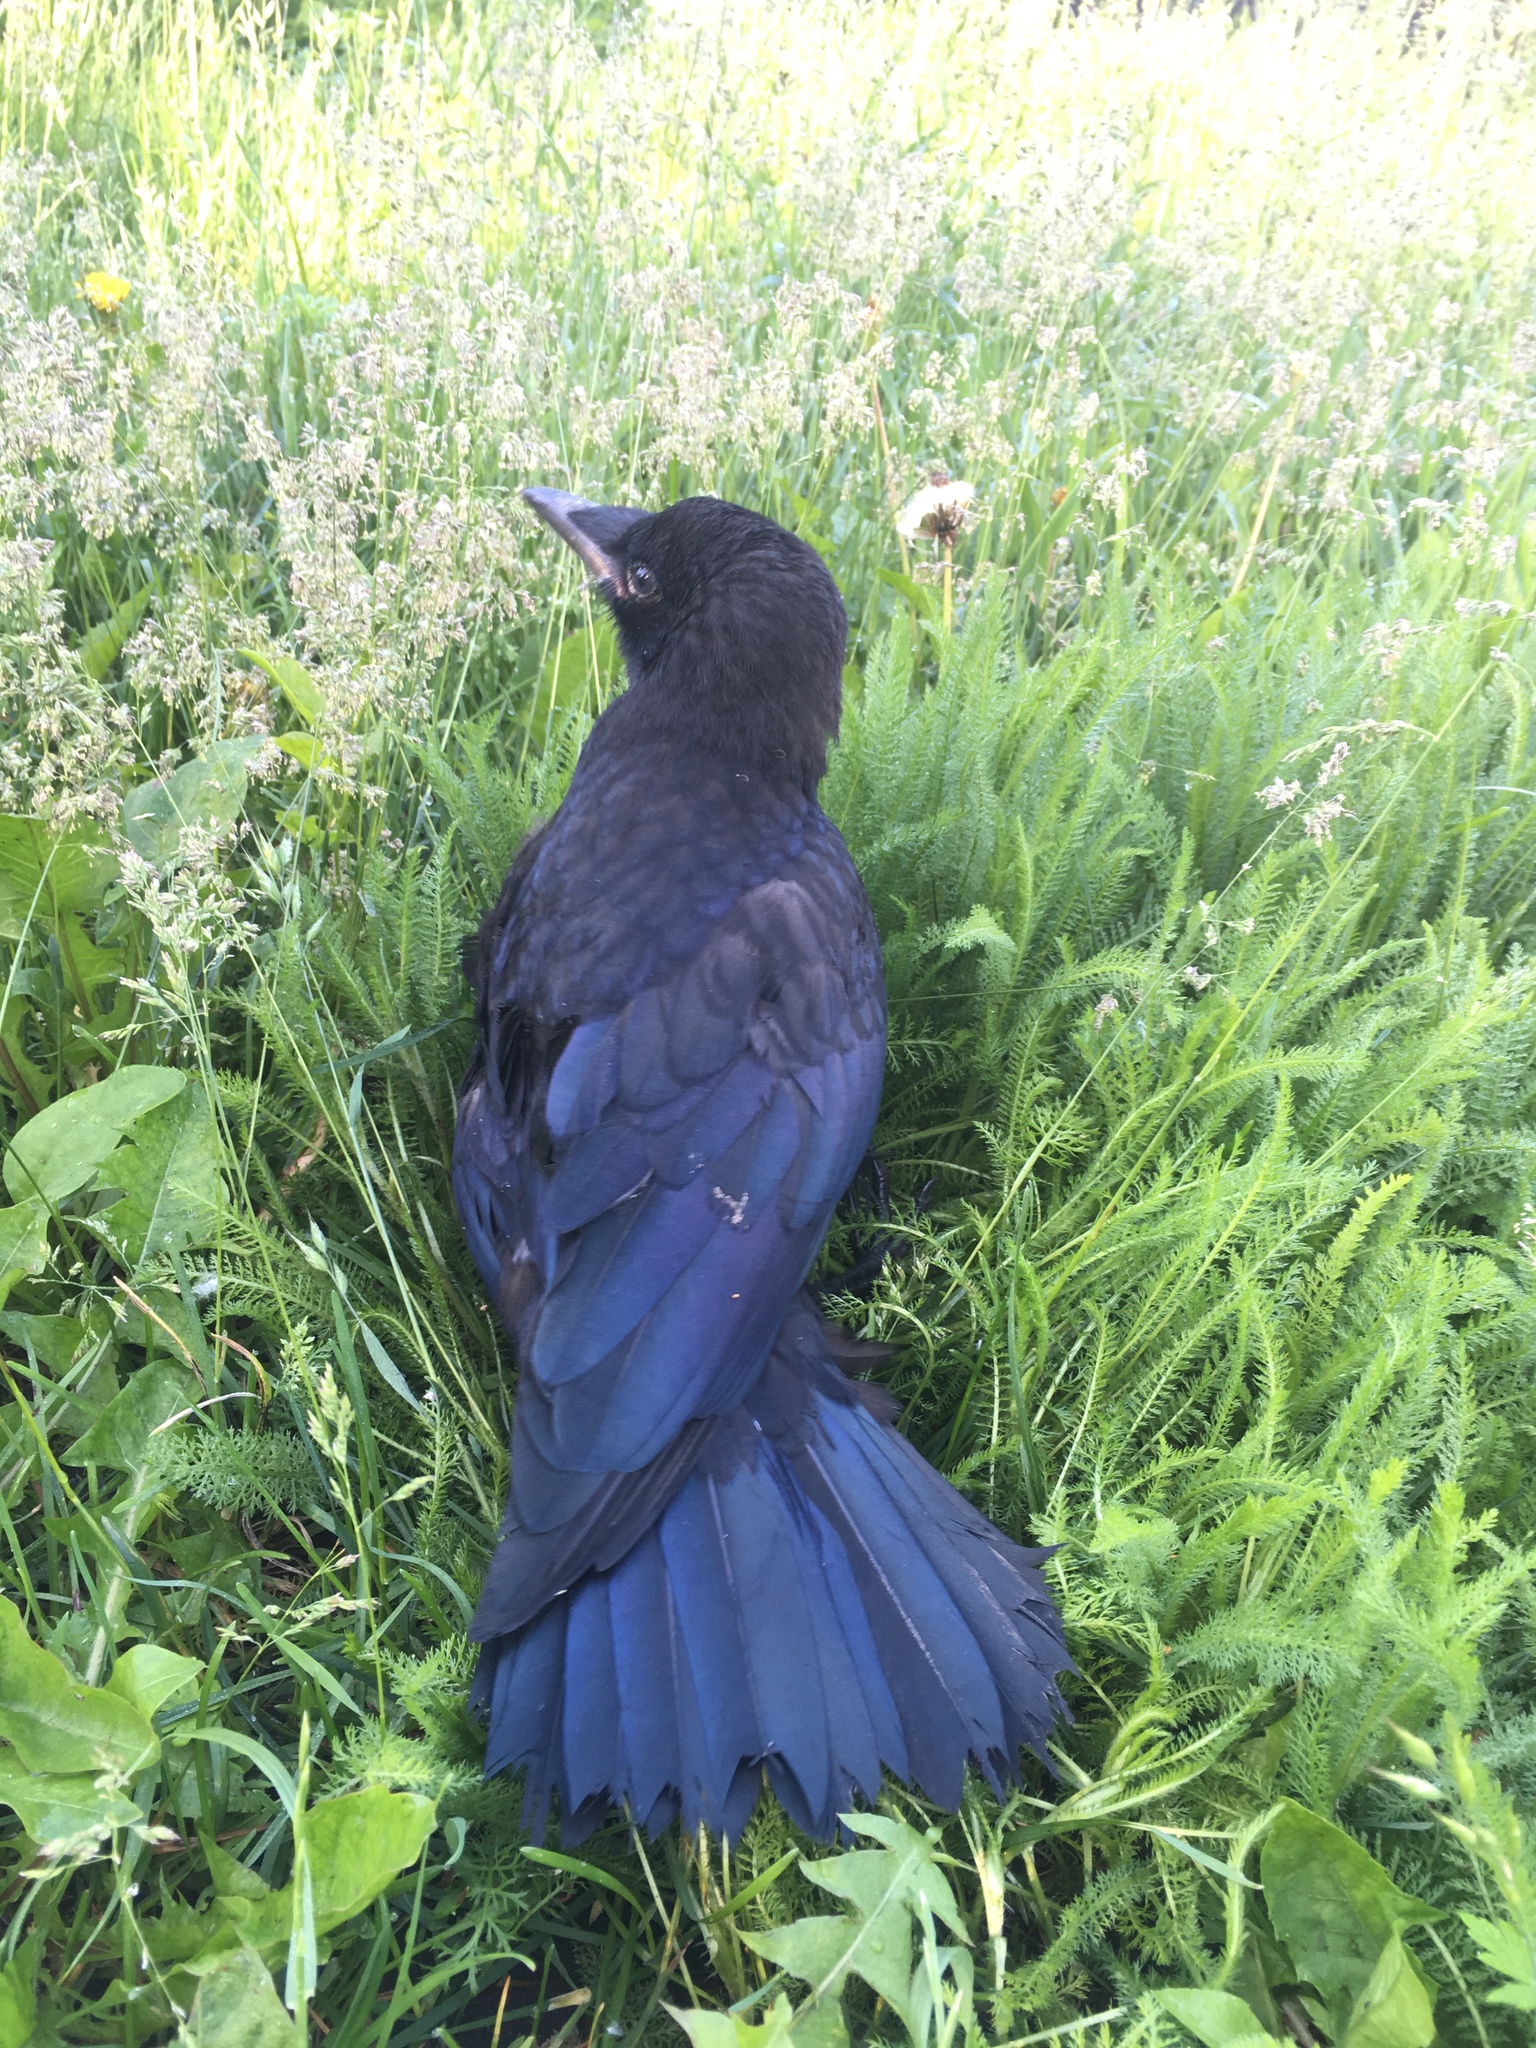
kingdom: Animalia
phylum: Chordata
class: Aves
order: Passeriformes
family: Corvidae
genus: Corvus
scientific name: Corvus corax
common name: Common raven
